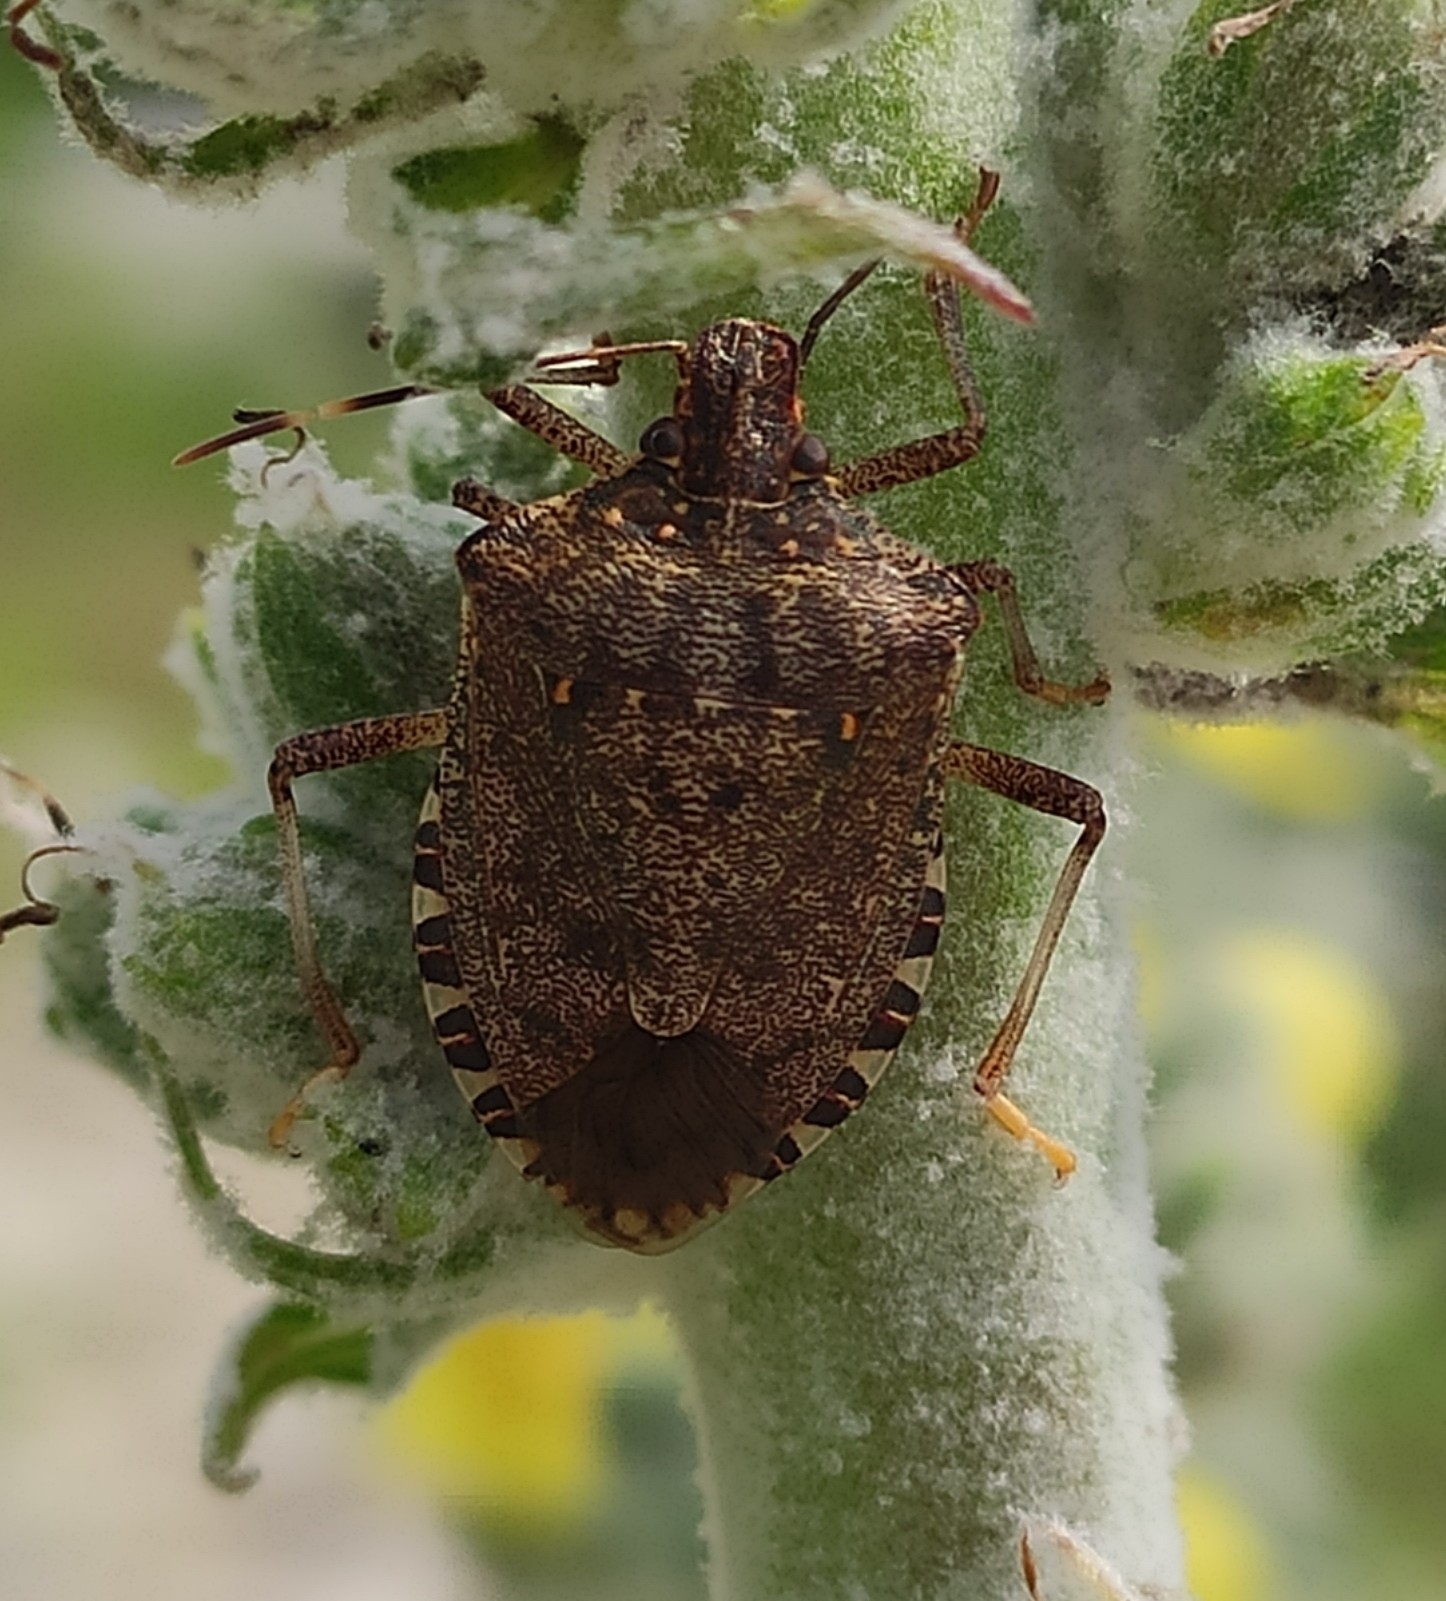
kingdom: Animalia
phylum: Arthropoda
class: Insecta
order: Hemiptera
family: Pentatomidae
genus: Halyomorpha
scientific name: Halyomorpha halys
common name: Brown marmorated stink bug
